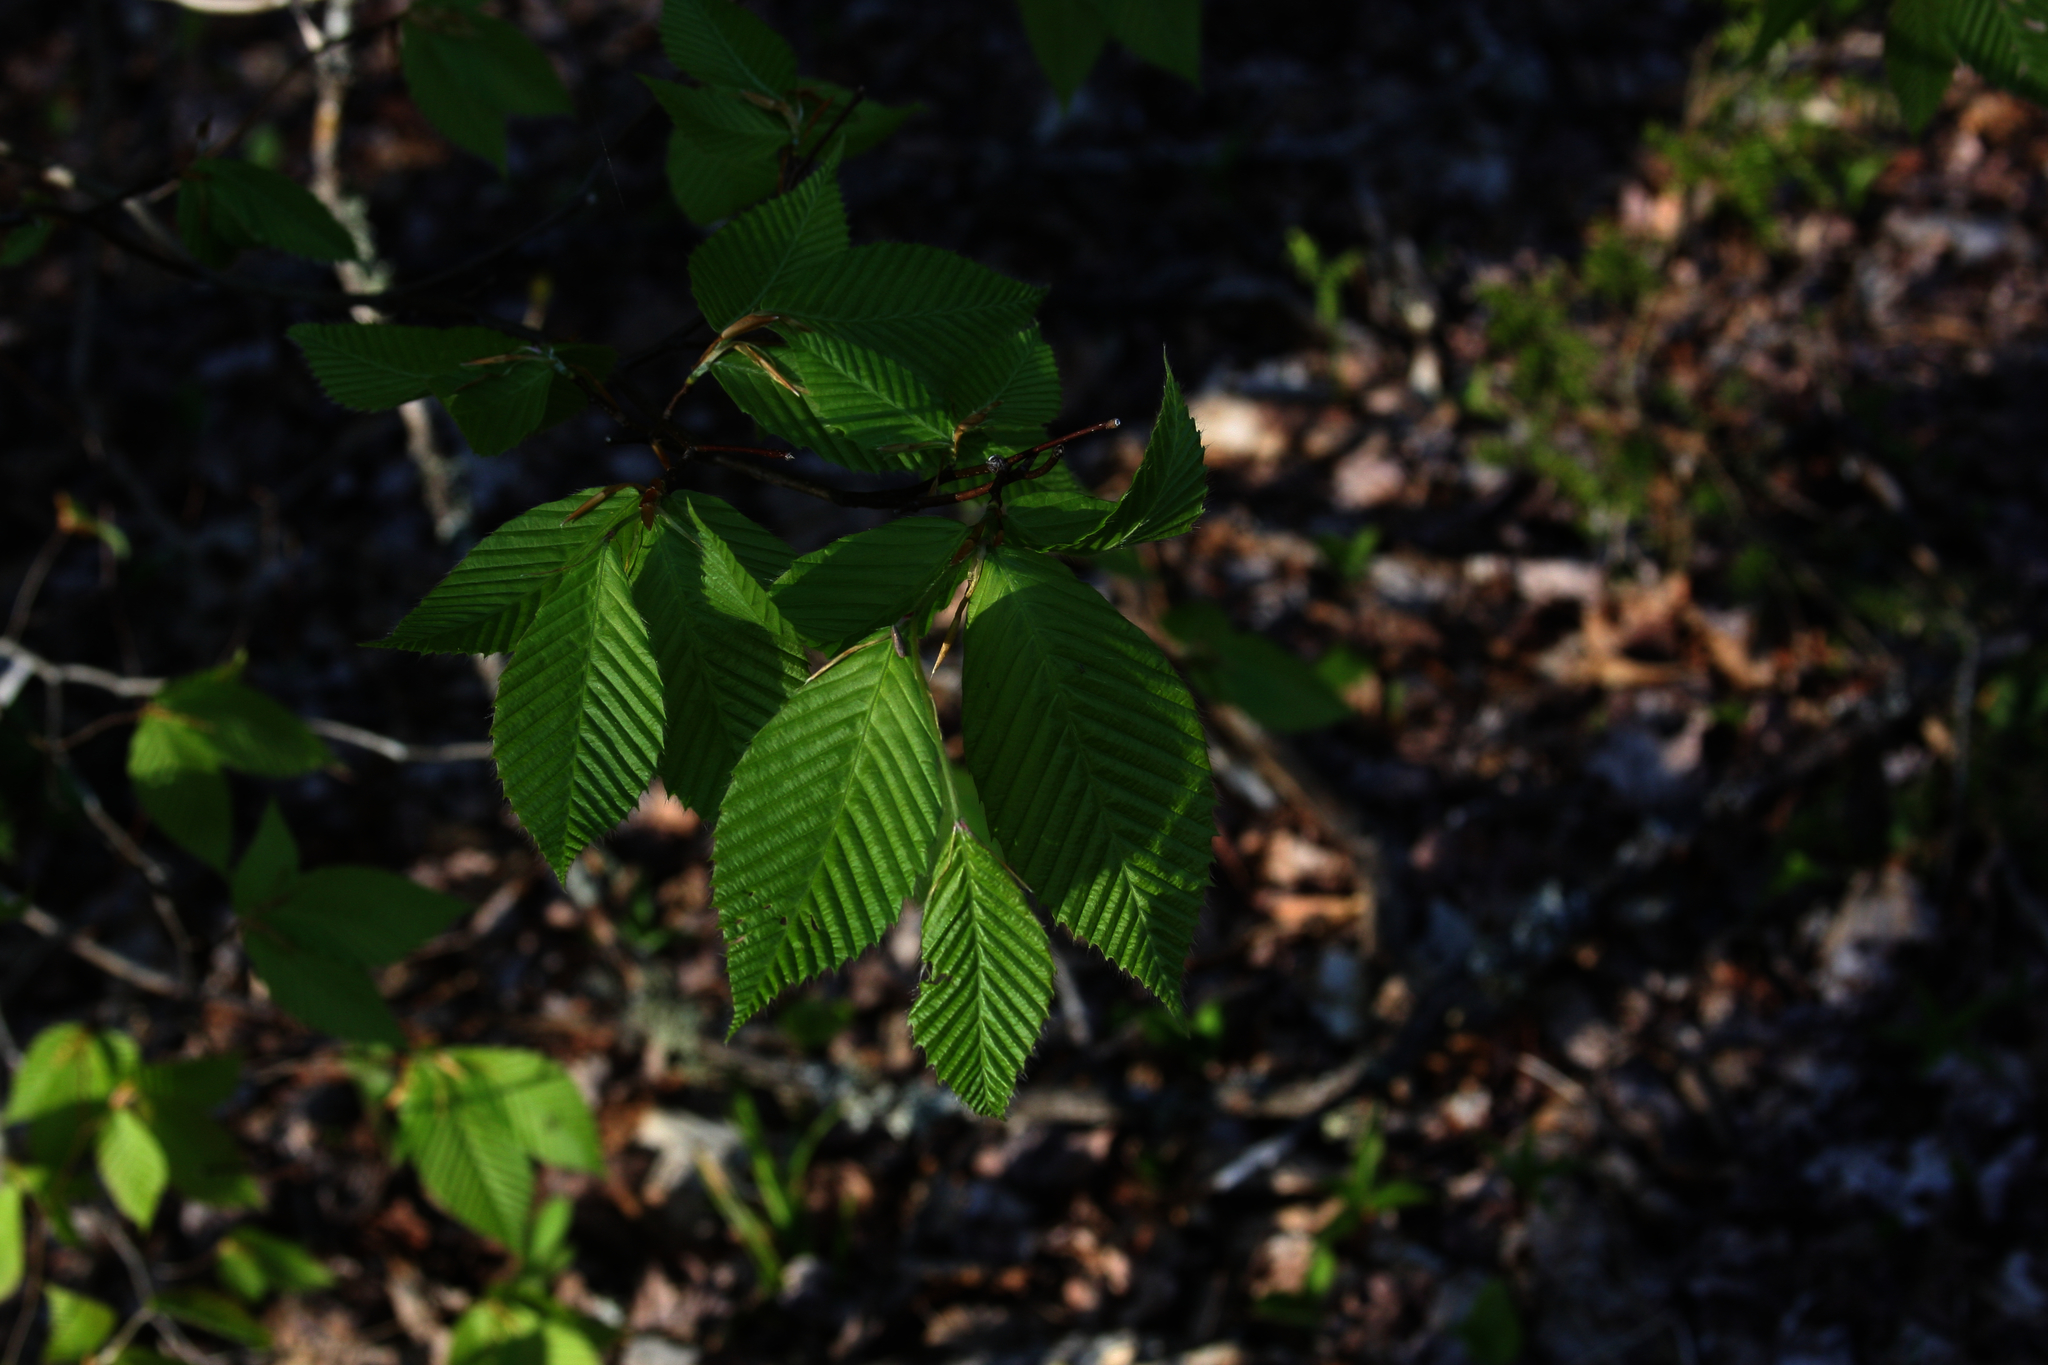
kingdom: Plantae
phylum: Tracheophyta
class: Magnoliopsida
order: Fagales
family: Fagaceae
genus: Fagus
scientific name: Fagus grandifolia
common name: American beech
